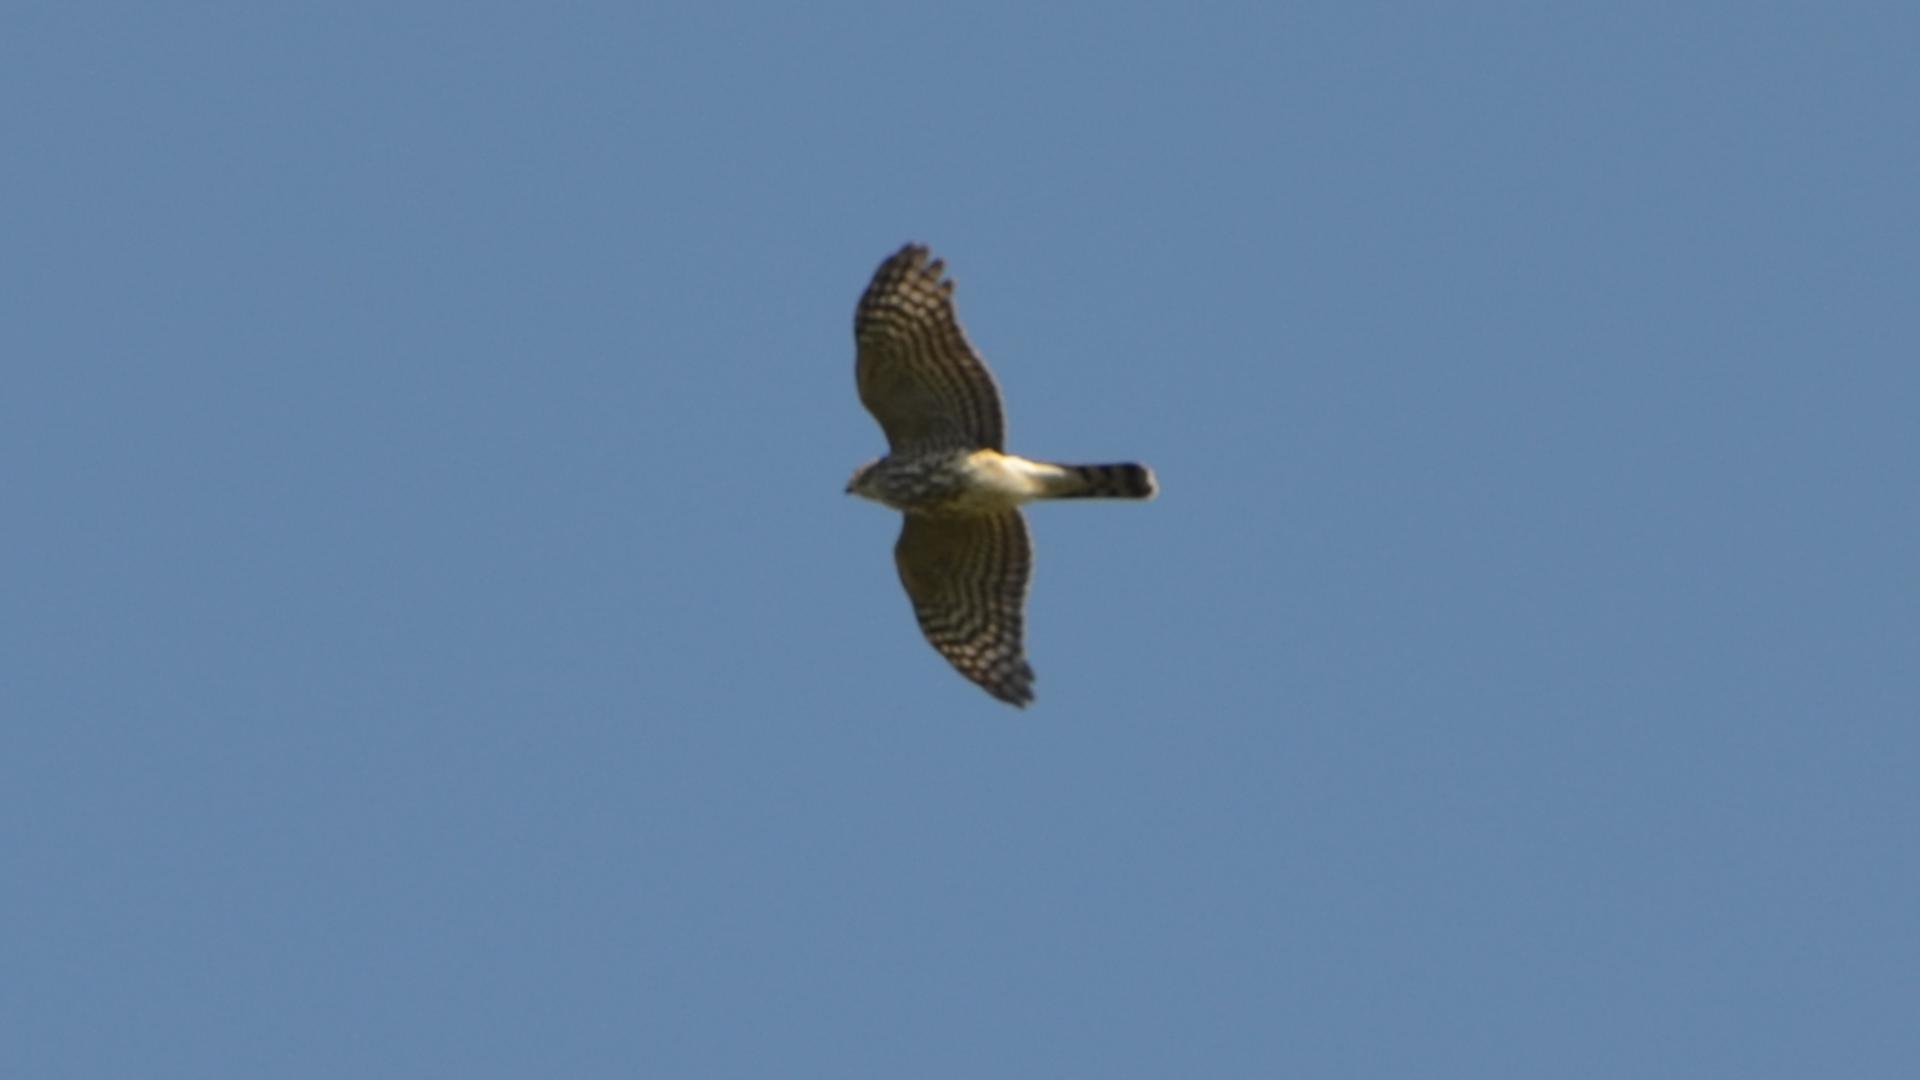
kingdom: Animalia
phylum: Chordata
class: Aves
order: Accipitriformes
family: Accipitridae
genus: Accipiter
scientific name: Accipiter striatus
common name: Sharp-shinned hawk
